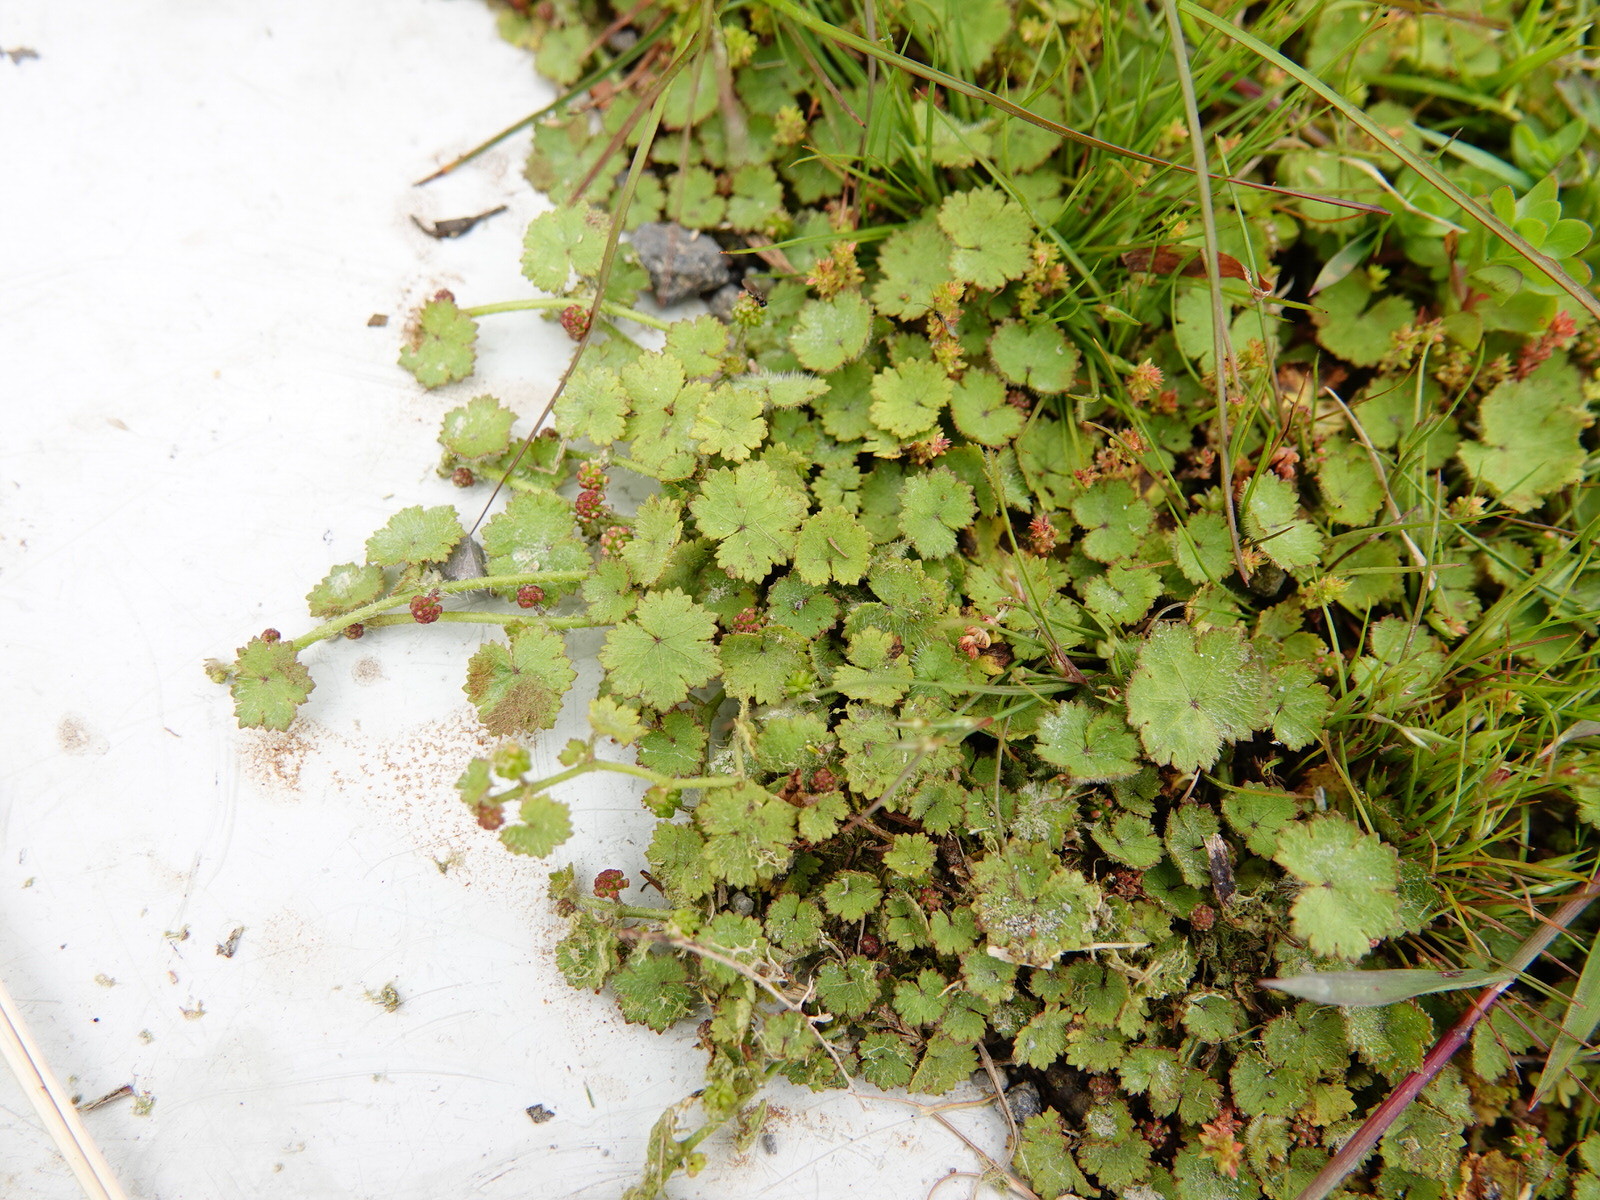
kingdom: Plantae
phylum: Tracheophyta
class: Magnoliopsida
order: Apiales
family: Araliaceae
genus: Hydrocotyle
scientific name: Hydrocotyle moschata
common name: Hairy pennywort
